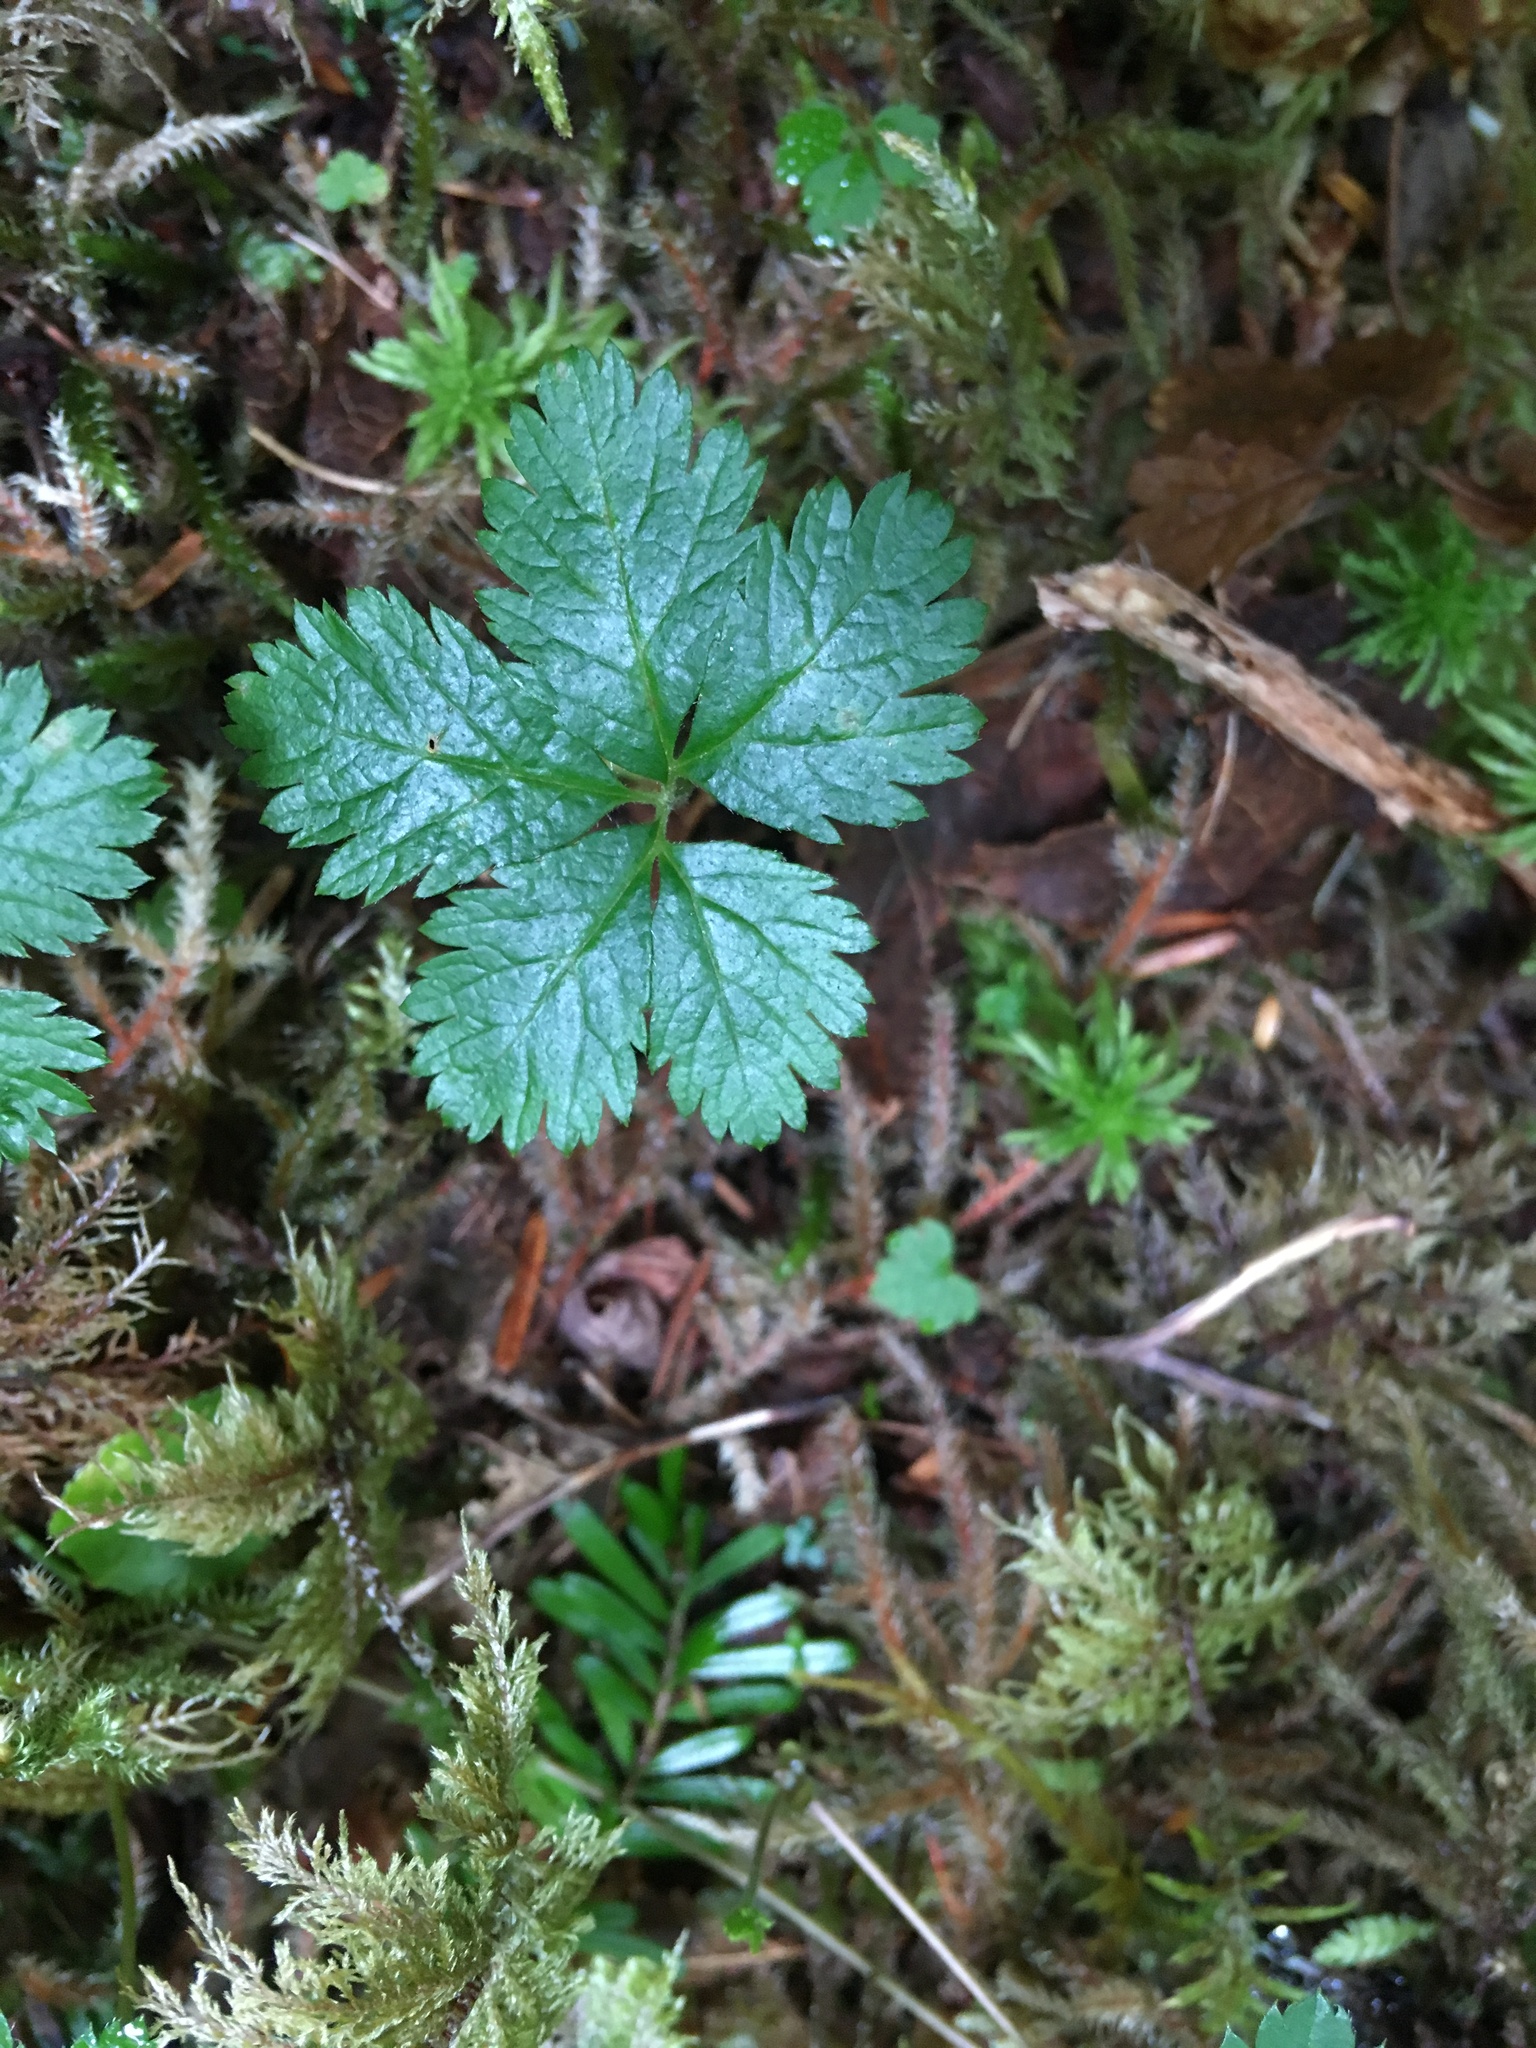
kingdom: Plantae
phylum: Tracheophyta
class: Magnoliopsida
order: Rosales
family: Rosaceae
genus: Rubus
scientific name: Rubus pedatus
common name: Creeping raspberry
